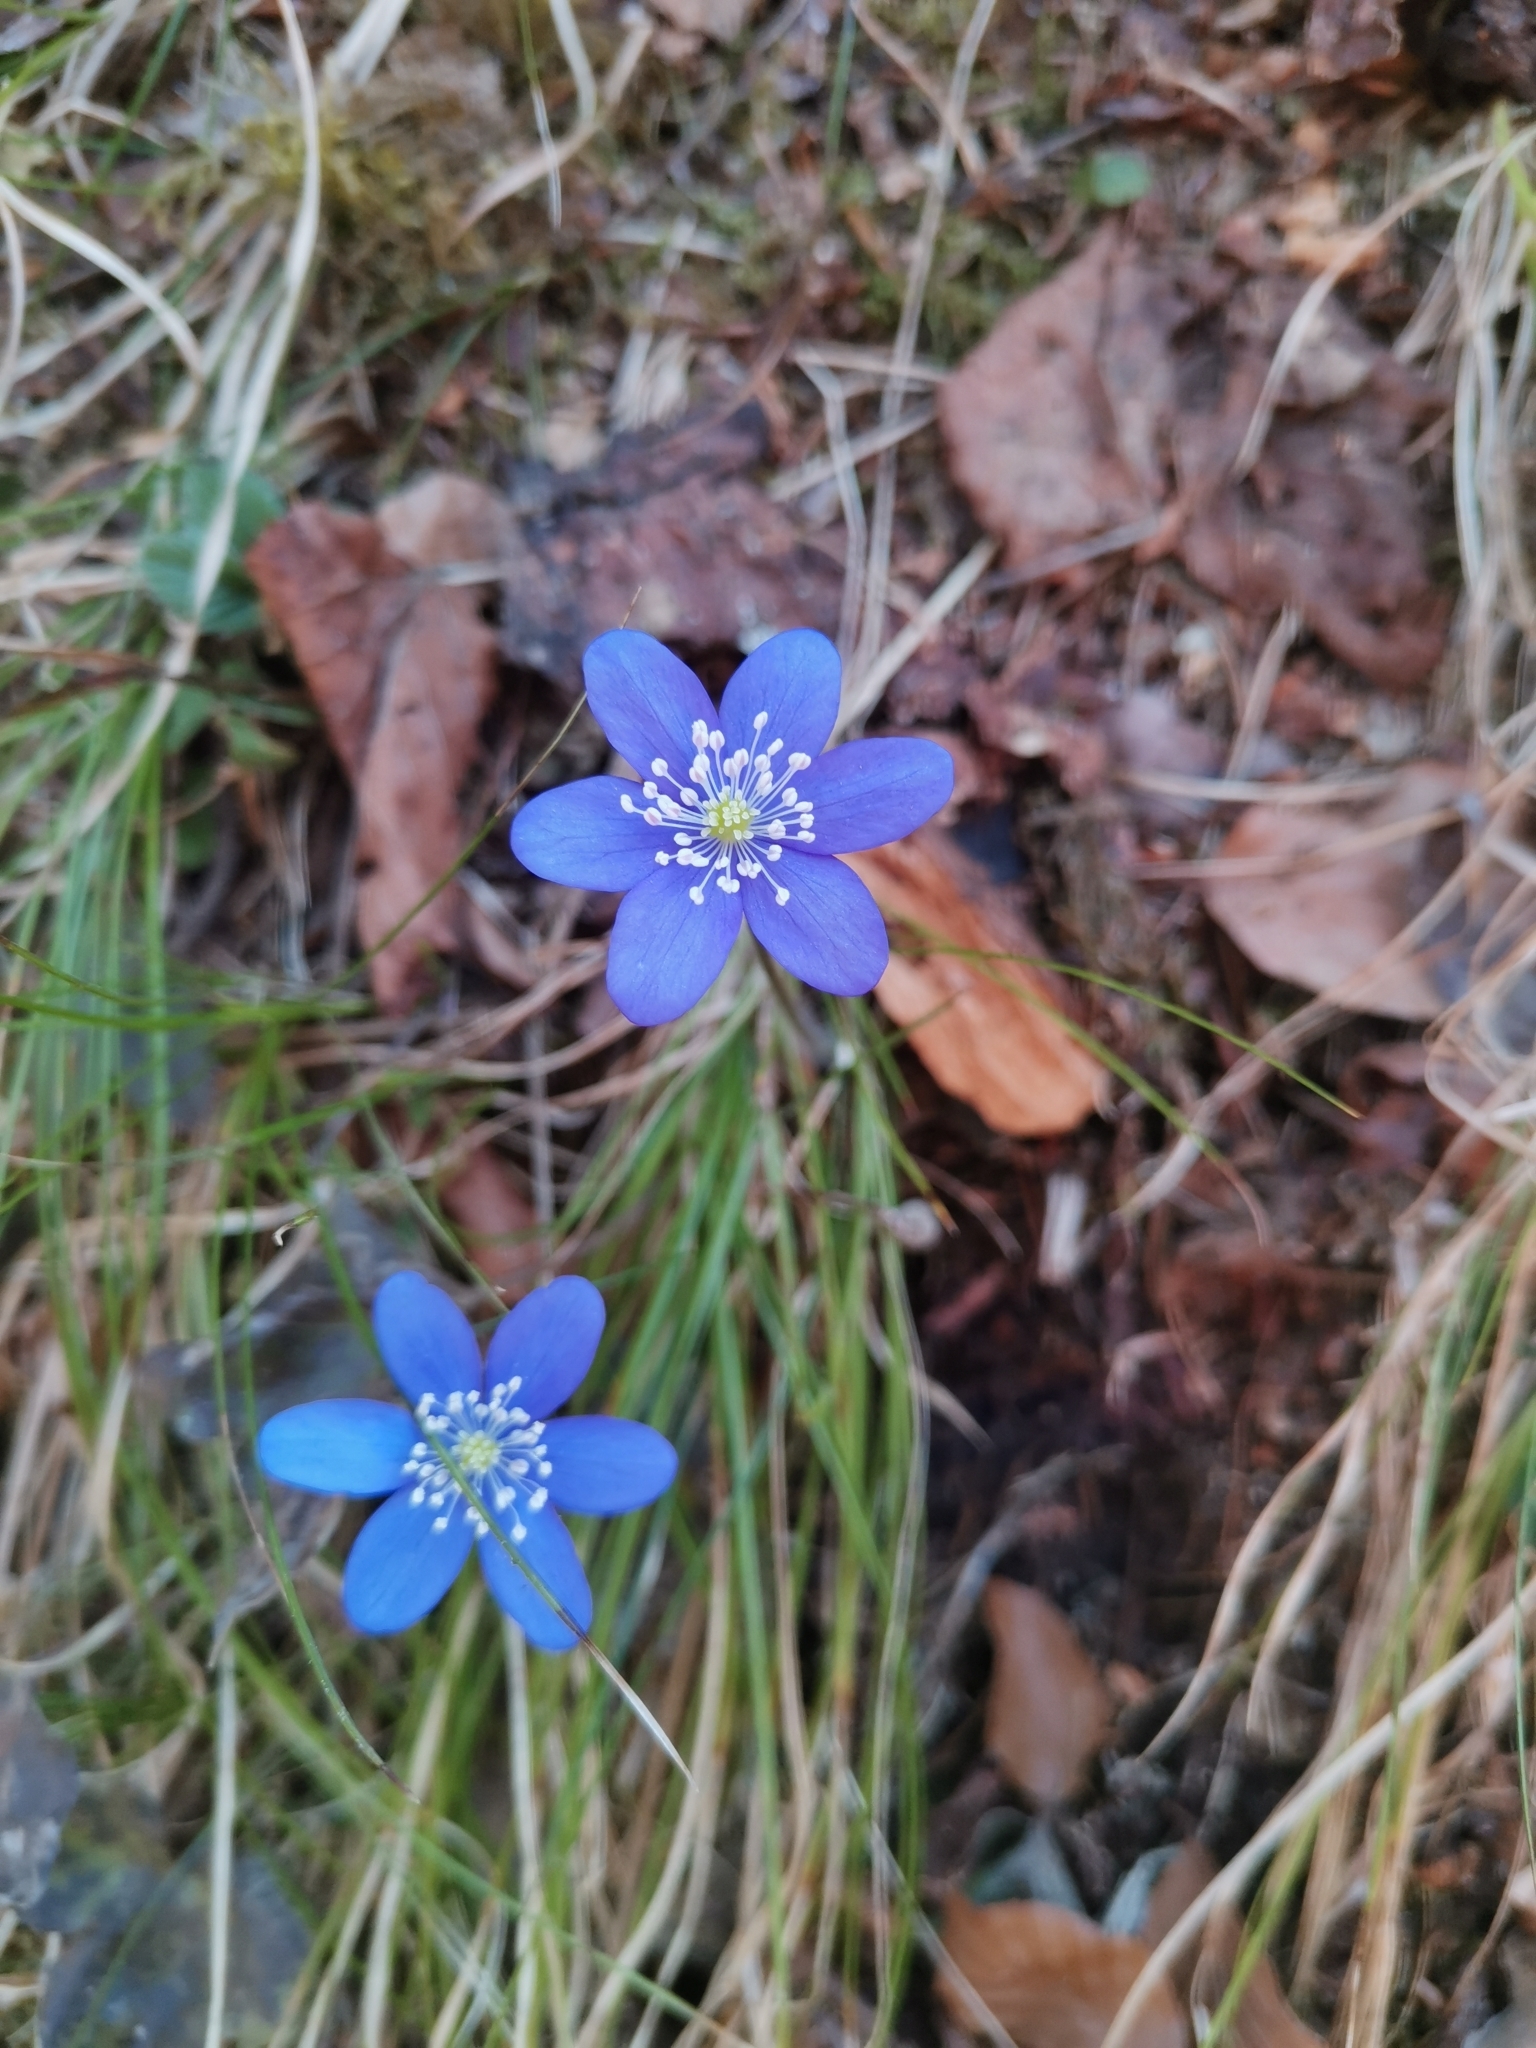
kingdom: Plantae
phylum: Tracheophyta
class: Magnoliopsida
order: Ranunculales
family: Ranunculaceae
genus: Hepatica
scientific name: Hepatica nobilis
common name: Liverleaf
